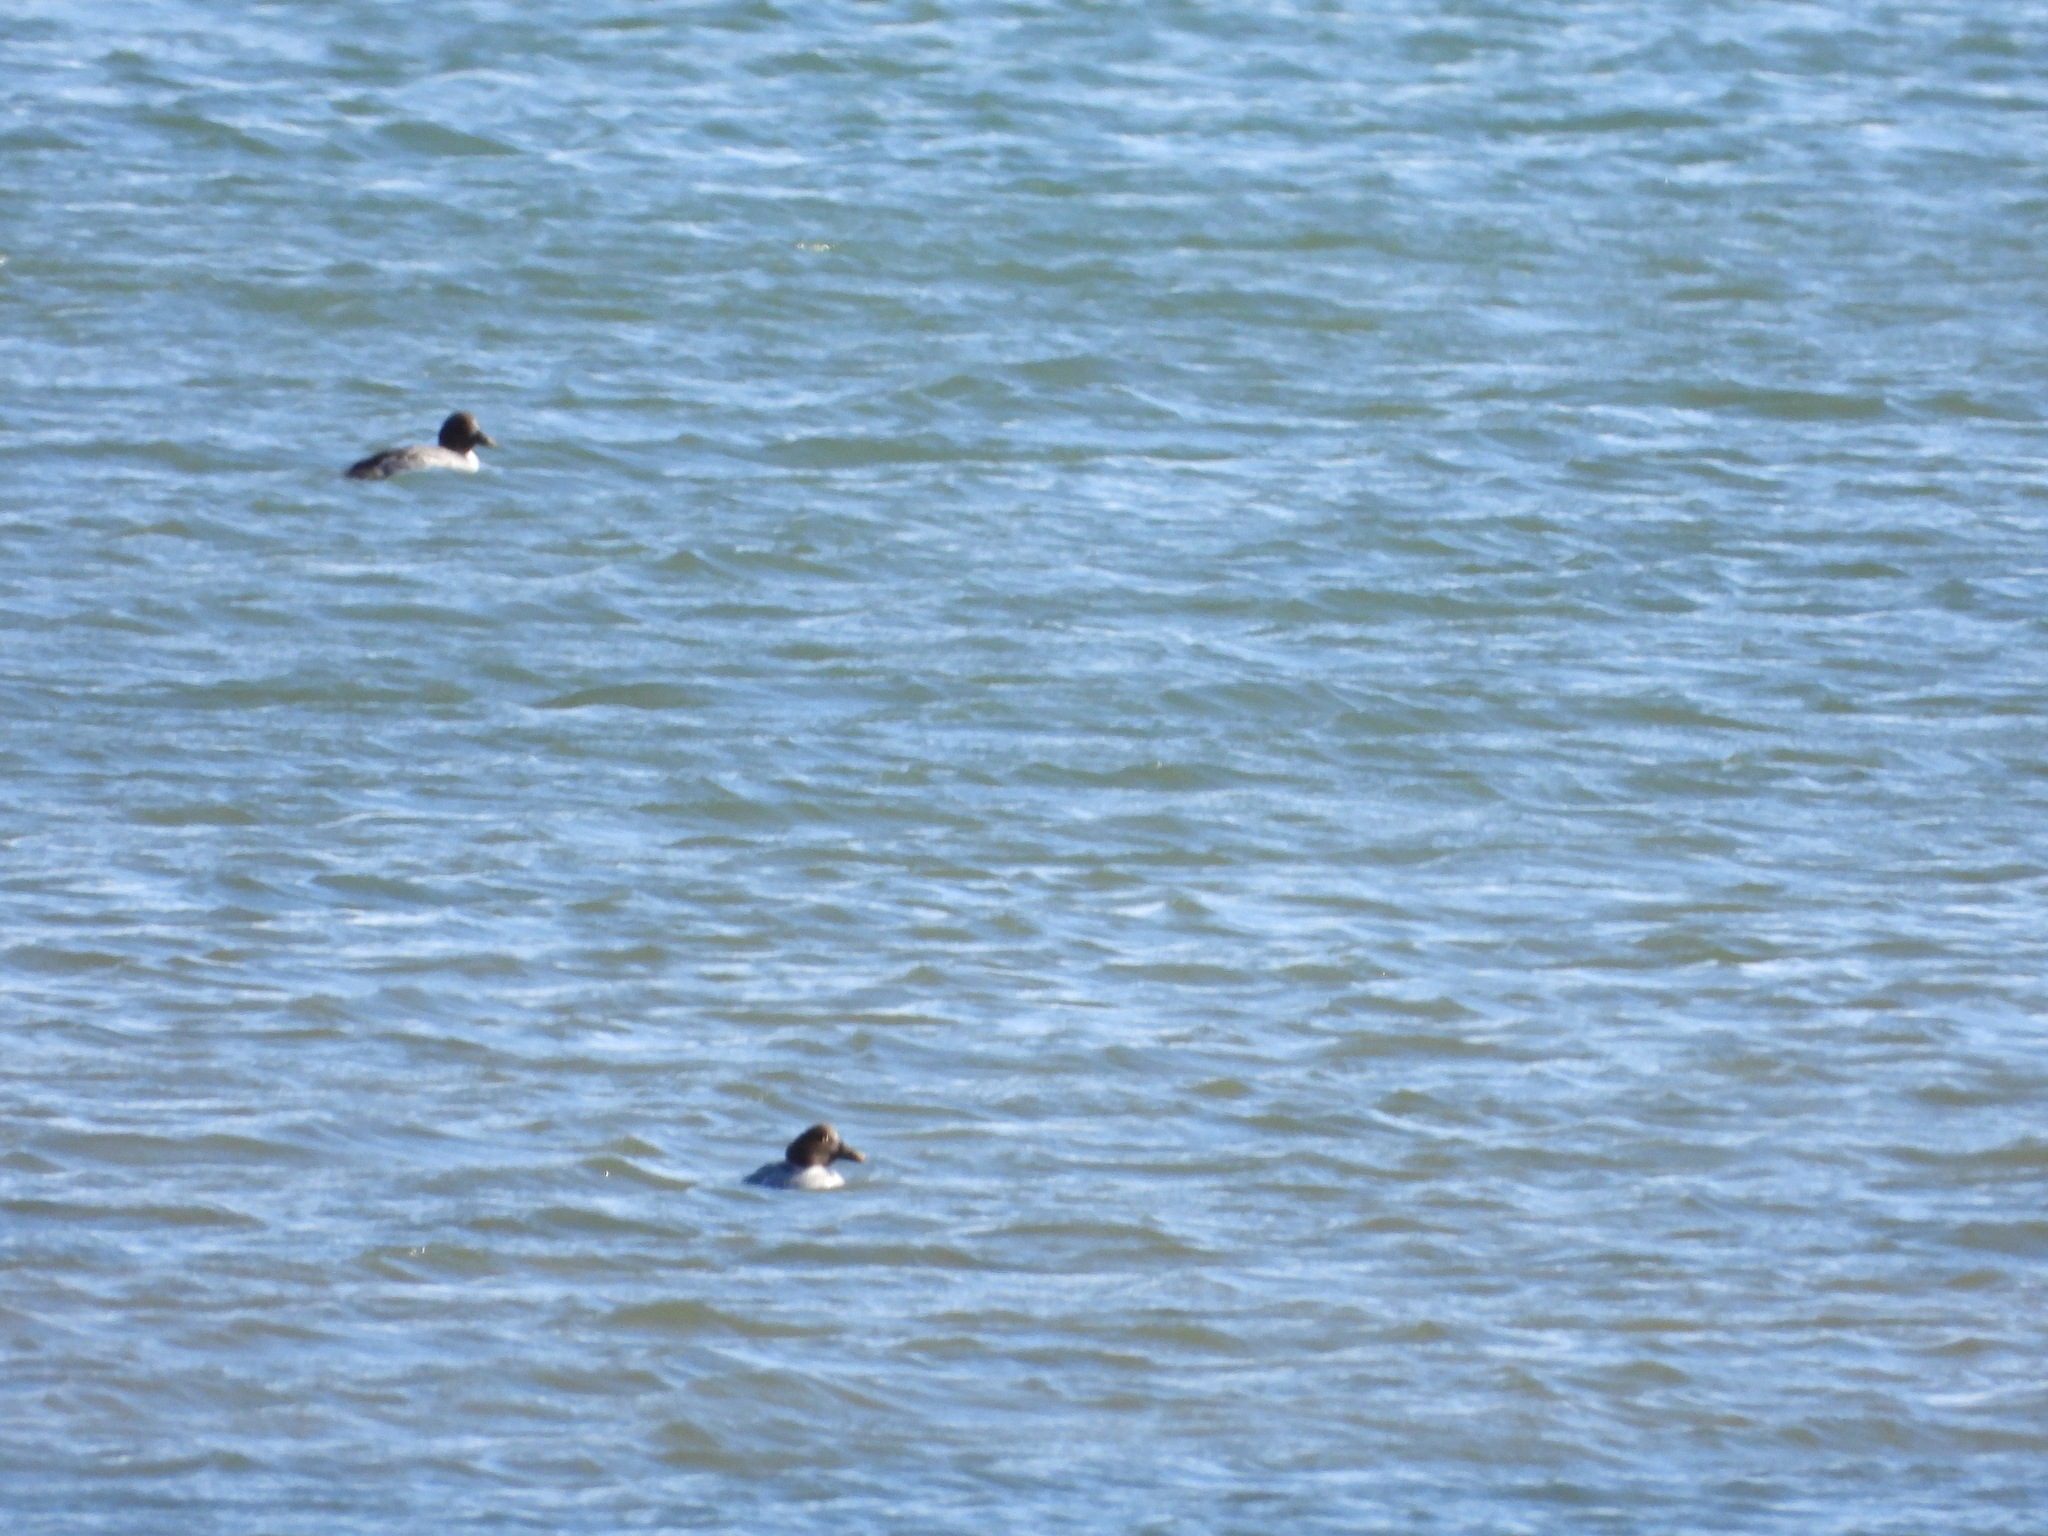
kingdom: Animalia
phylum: Chordata
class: Aves
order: Anseriformes
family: Anatidae
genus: Bucephala
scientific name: Bucephala clangula
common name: Common goldeneye
